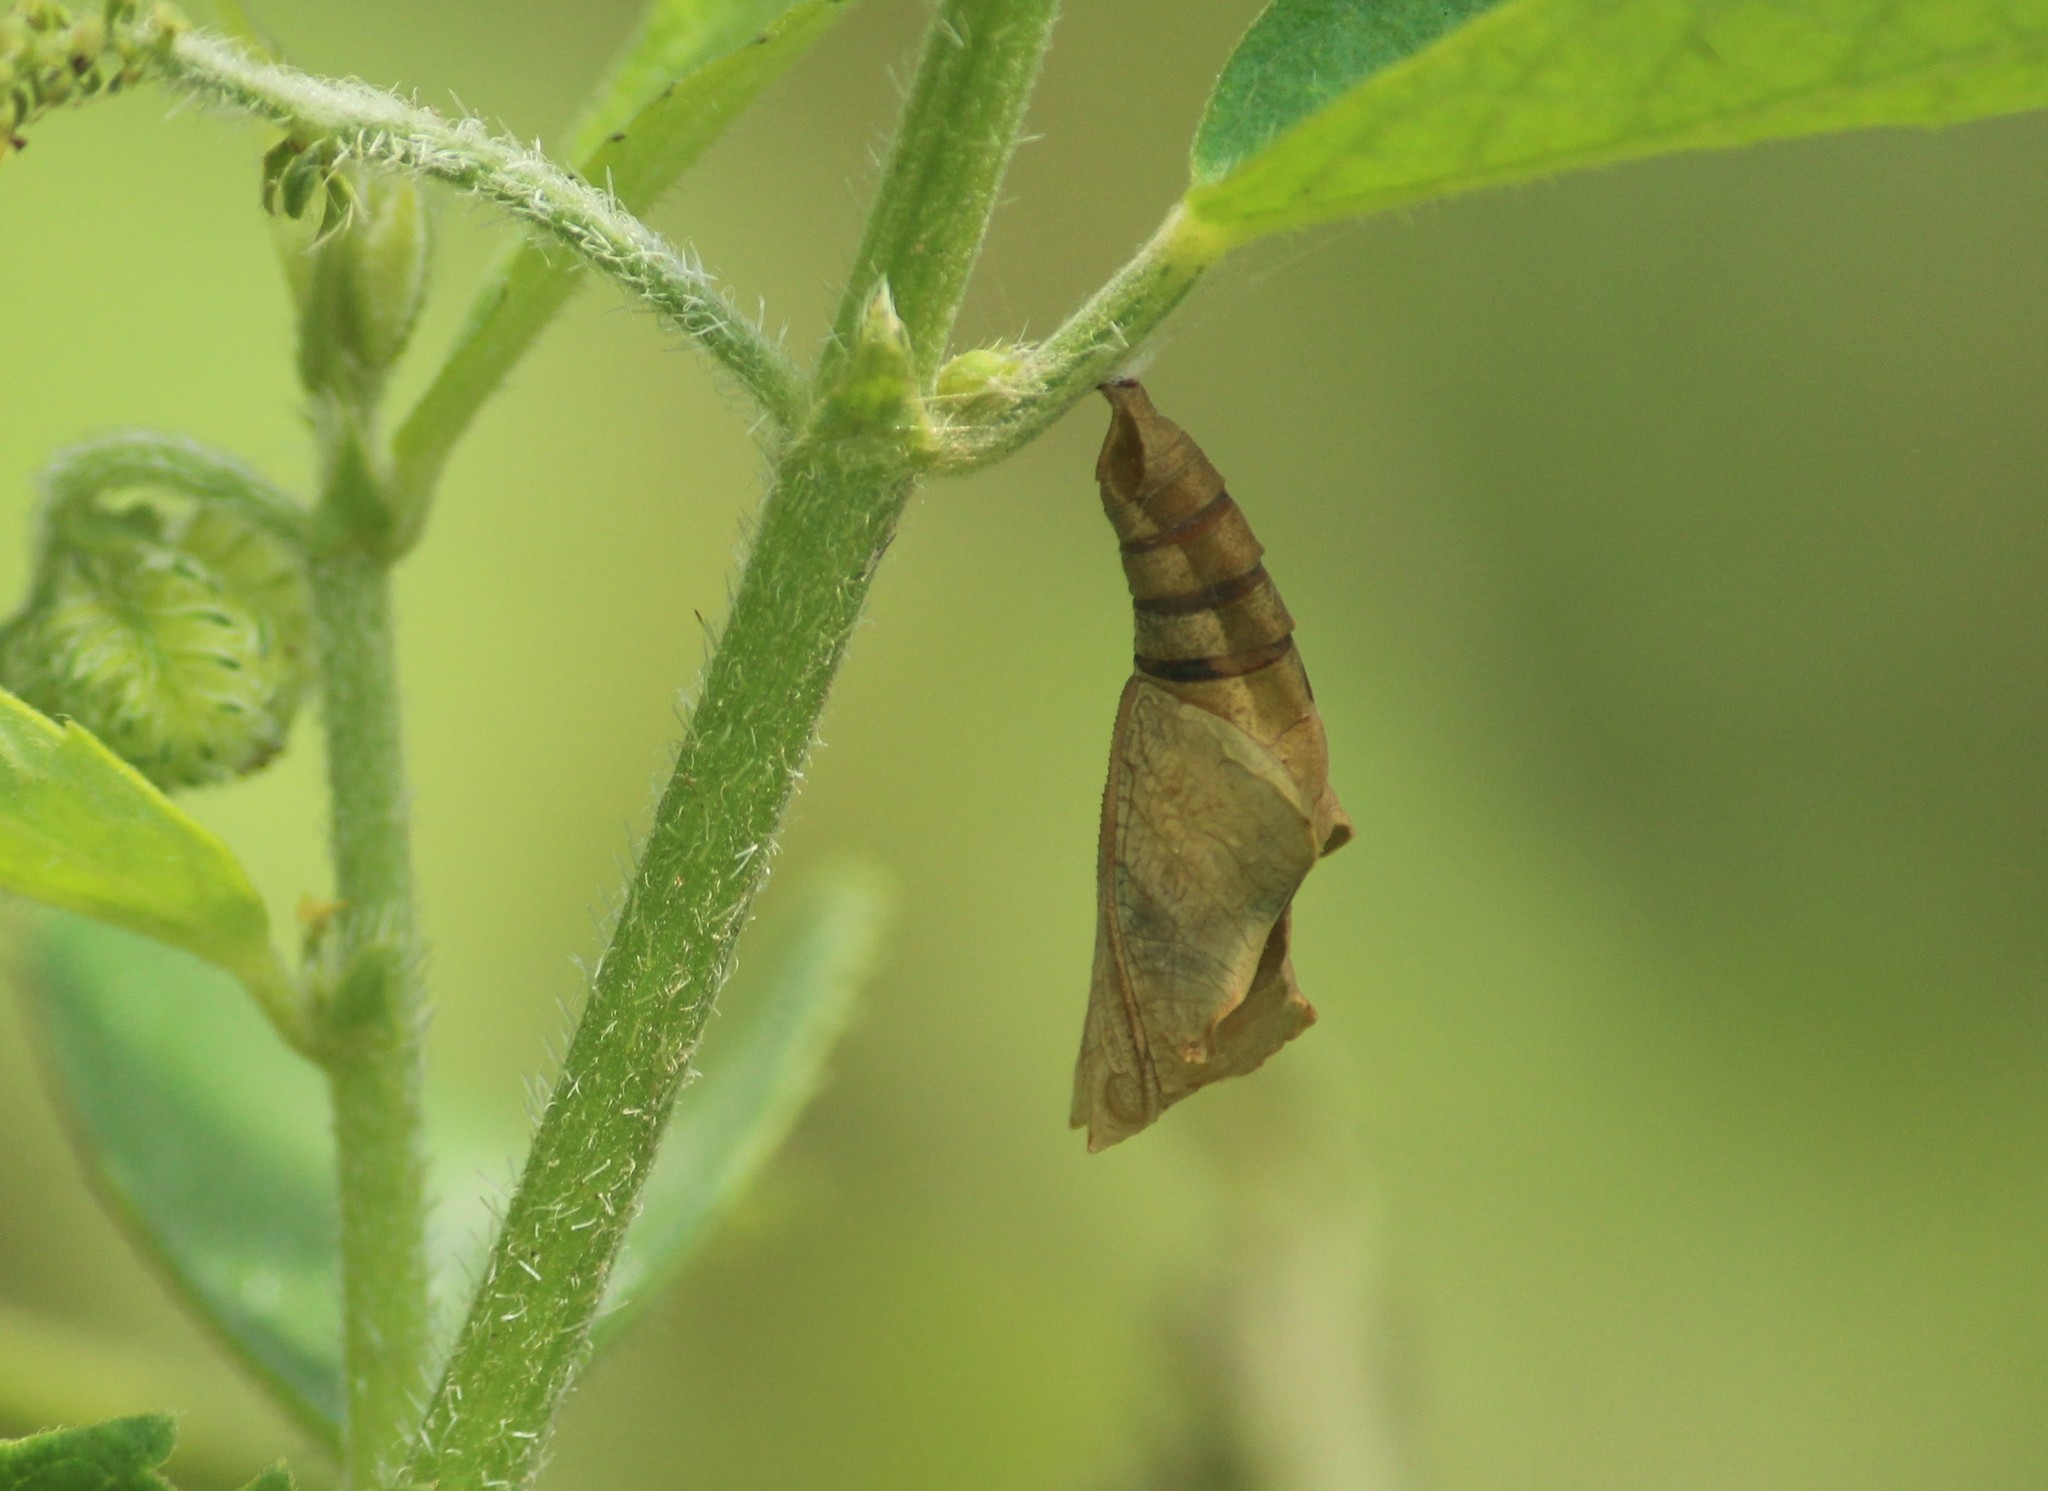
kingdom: Animalia
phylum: Arthropoda
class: Insecta
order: Lepidoptera
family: Nymphalidae
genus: Ariadne
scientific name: Ariadne ariadne
